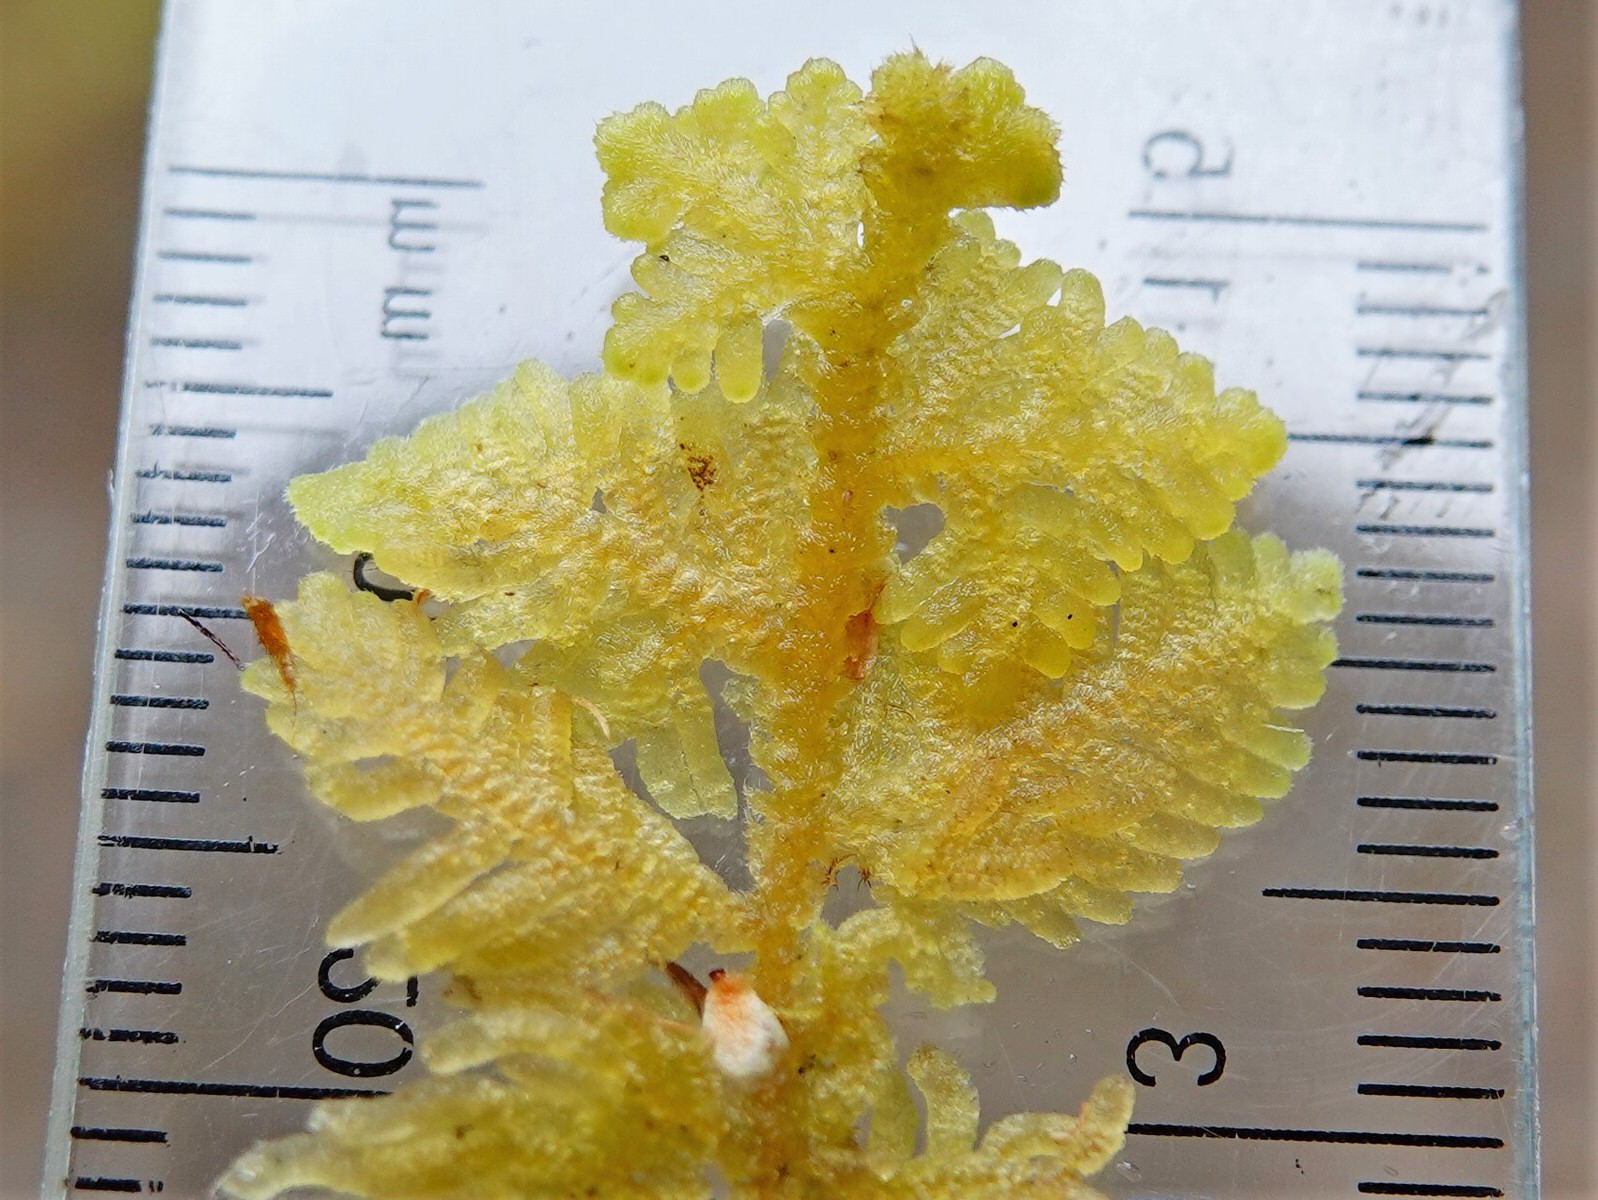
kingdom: Plantae
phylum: Marchantiophyta
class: Jungermanniopsida
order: Jungermanniales
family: Trichocoleaceae
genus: Trichocolea
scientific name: Trichocolea mollissima
